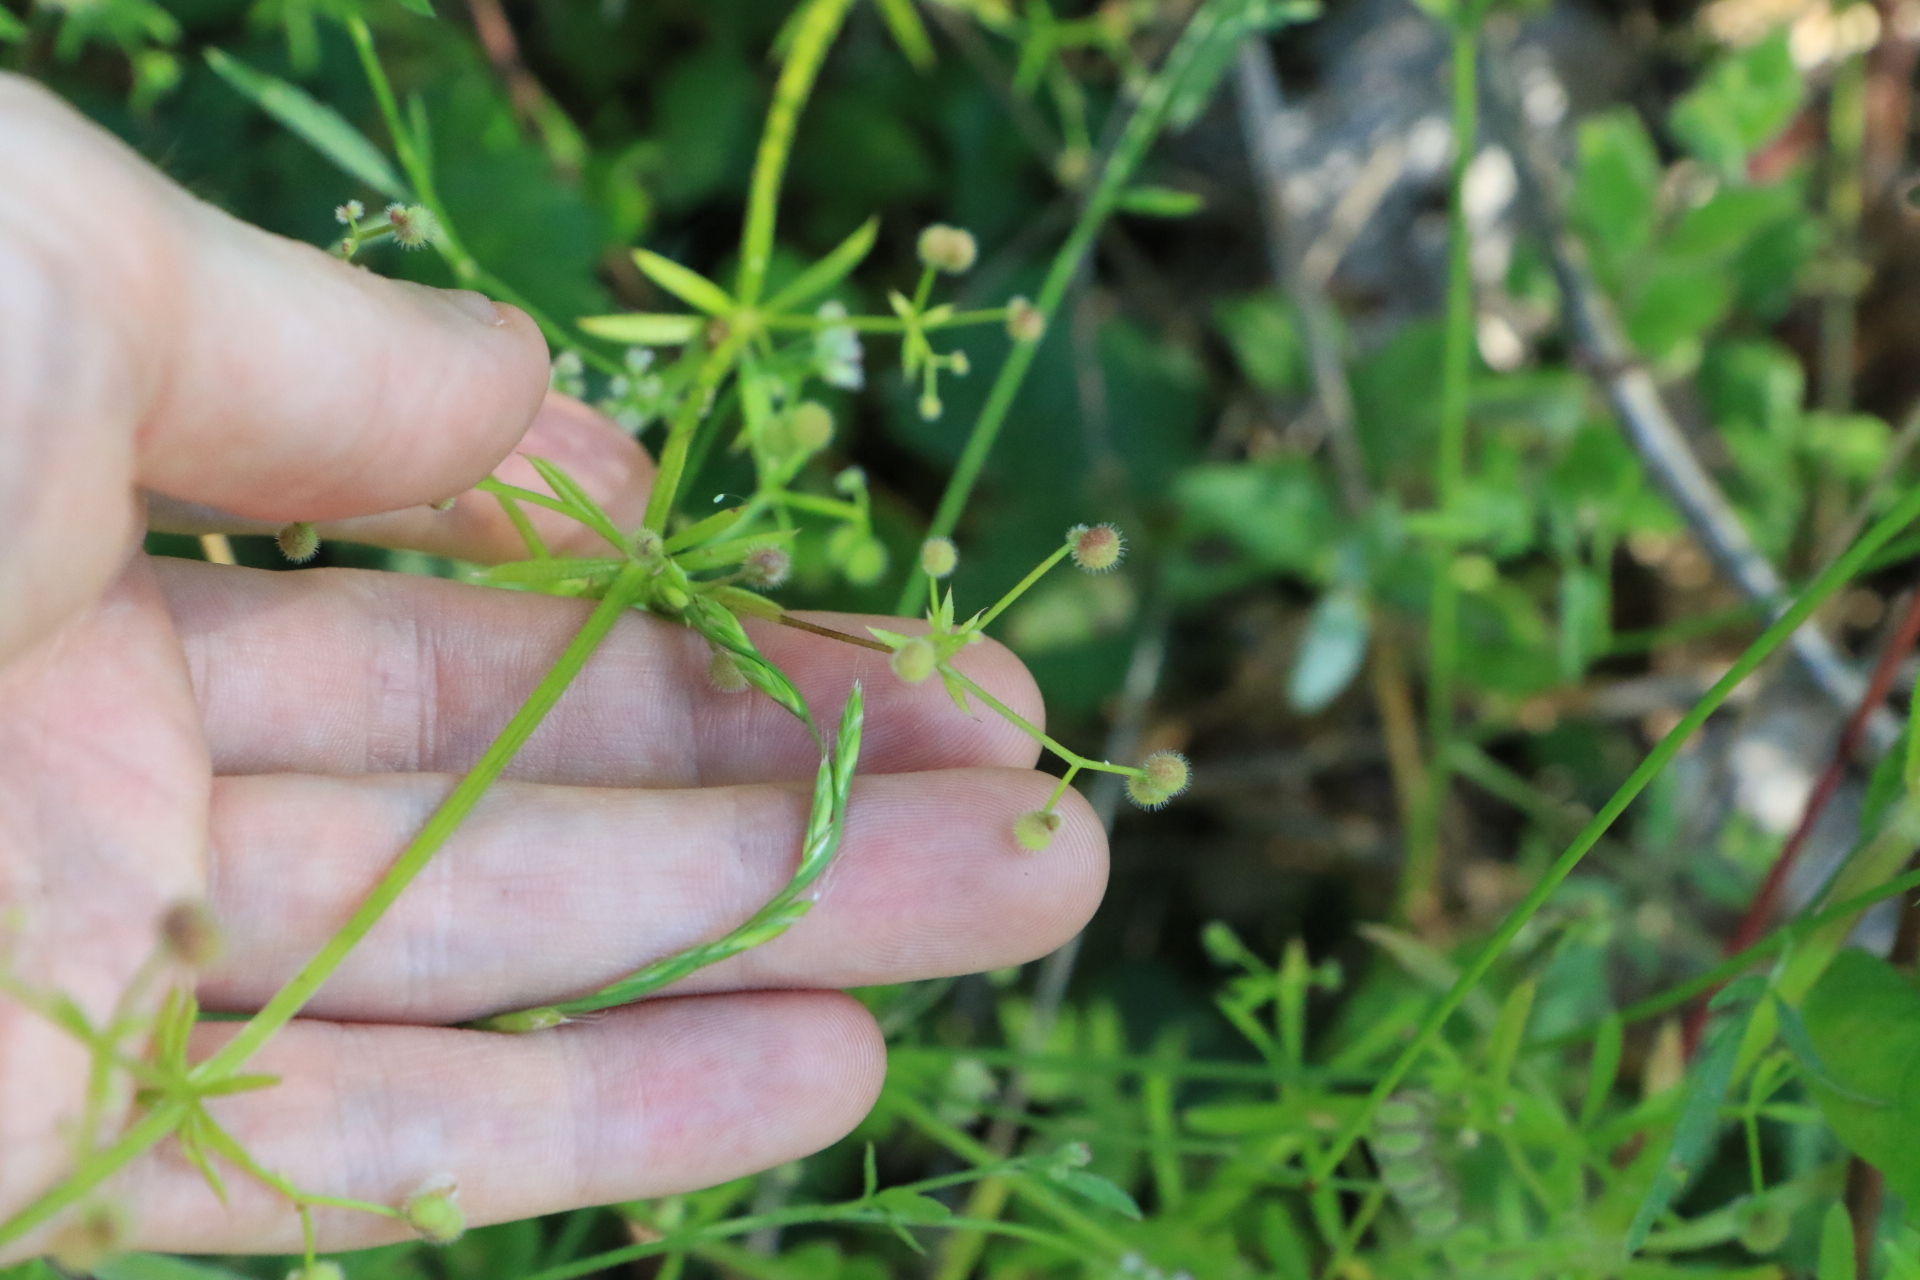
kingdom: Plantae
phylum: Tracheophyta
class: Magnoliopsida
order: Gentianales
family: Rubiaceae
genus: Galium
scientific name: Galium aparine
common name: Cleavers
